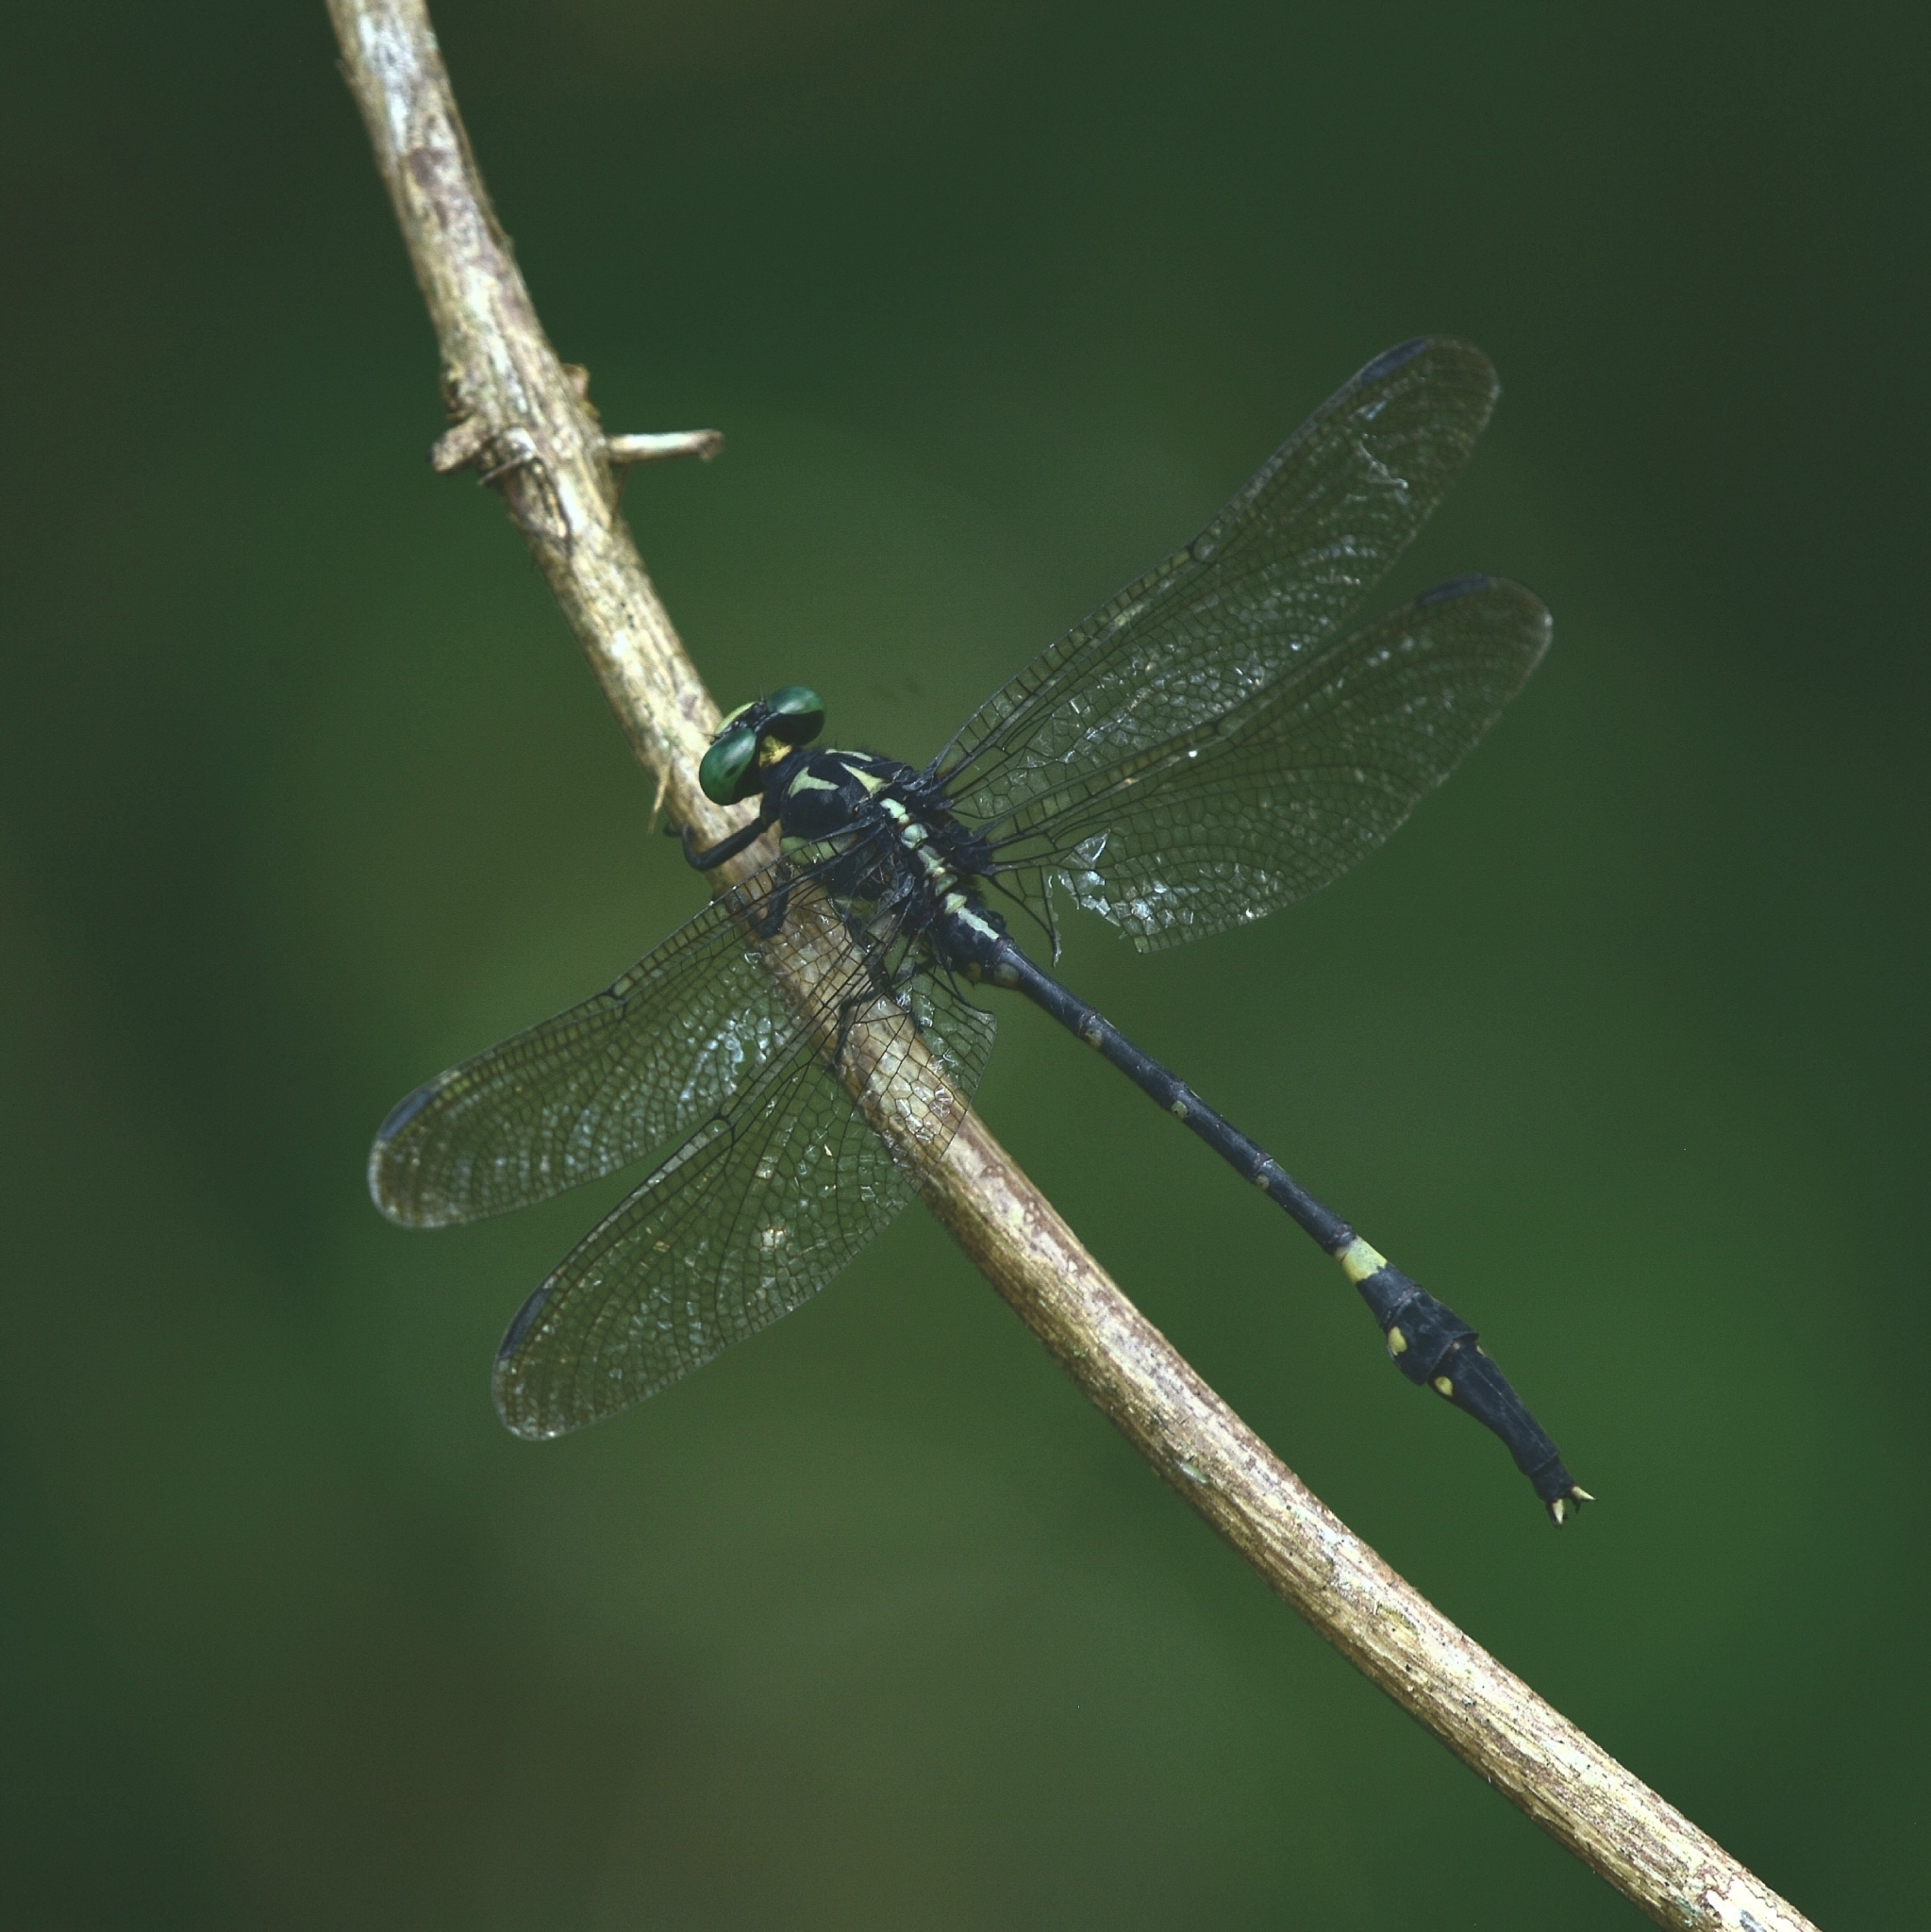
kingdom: Animalia
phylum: Arthropoda
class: Insecta
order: Odonata
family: Gomphidae
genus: Macrogomphus
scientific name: Macrogomphus wynaadicus
